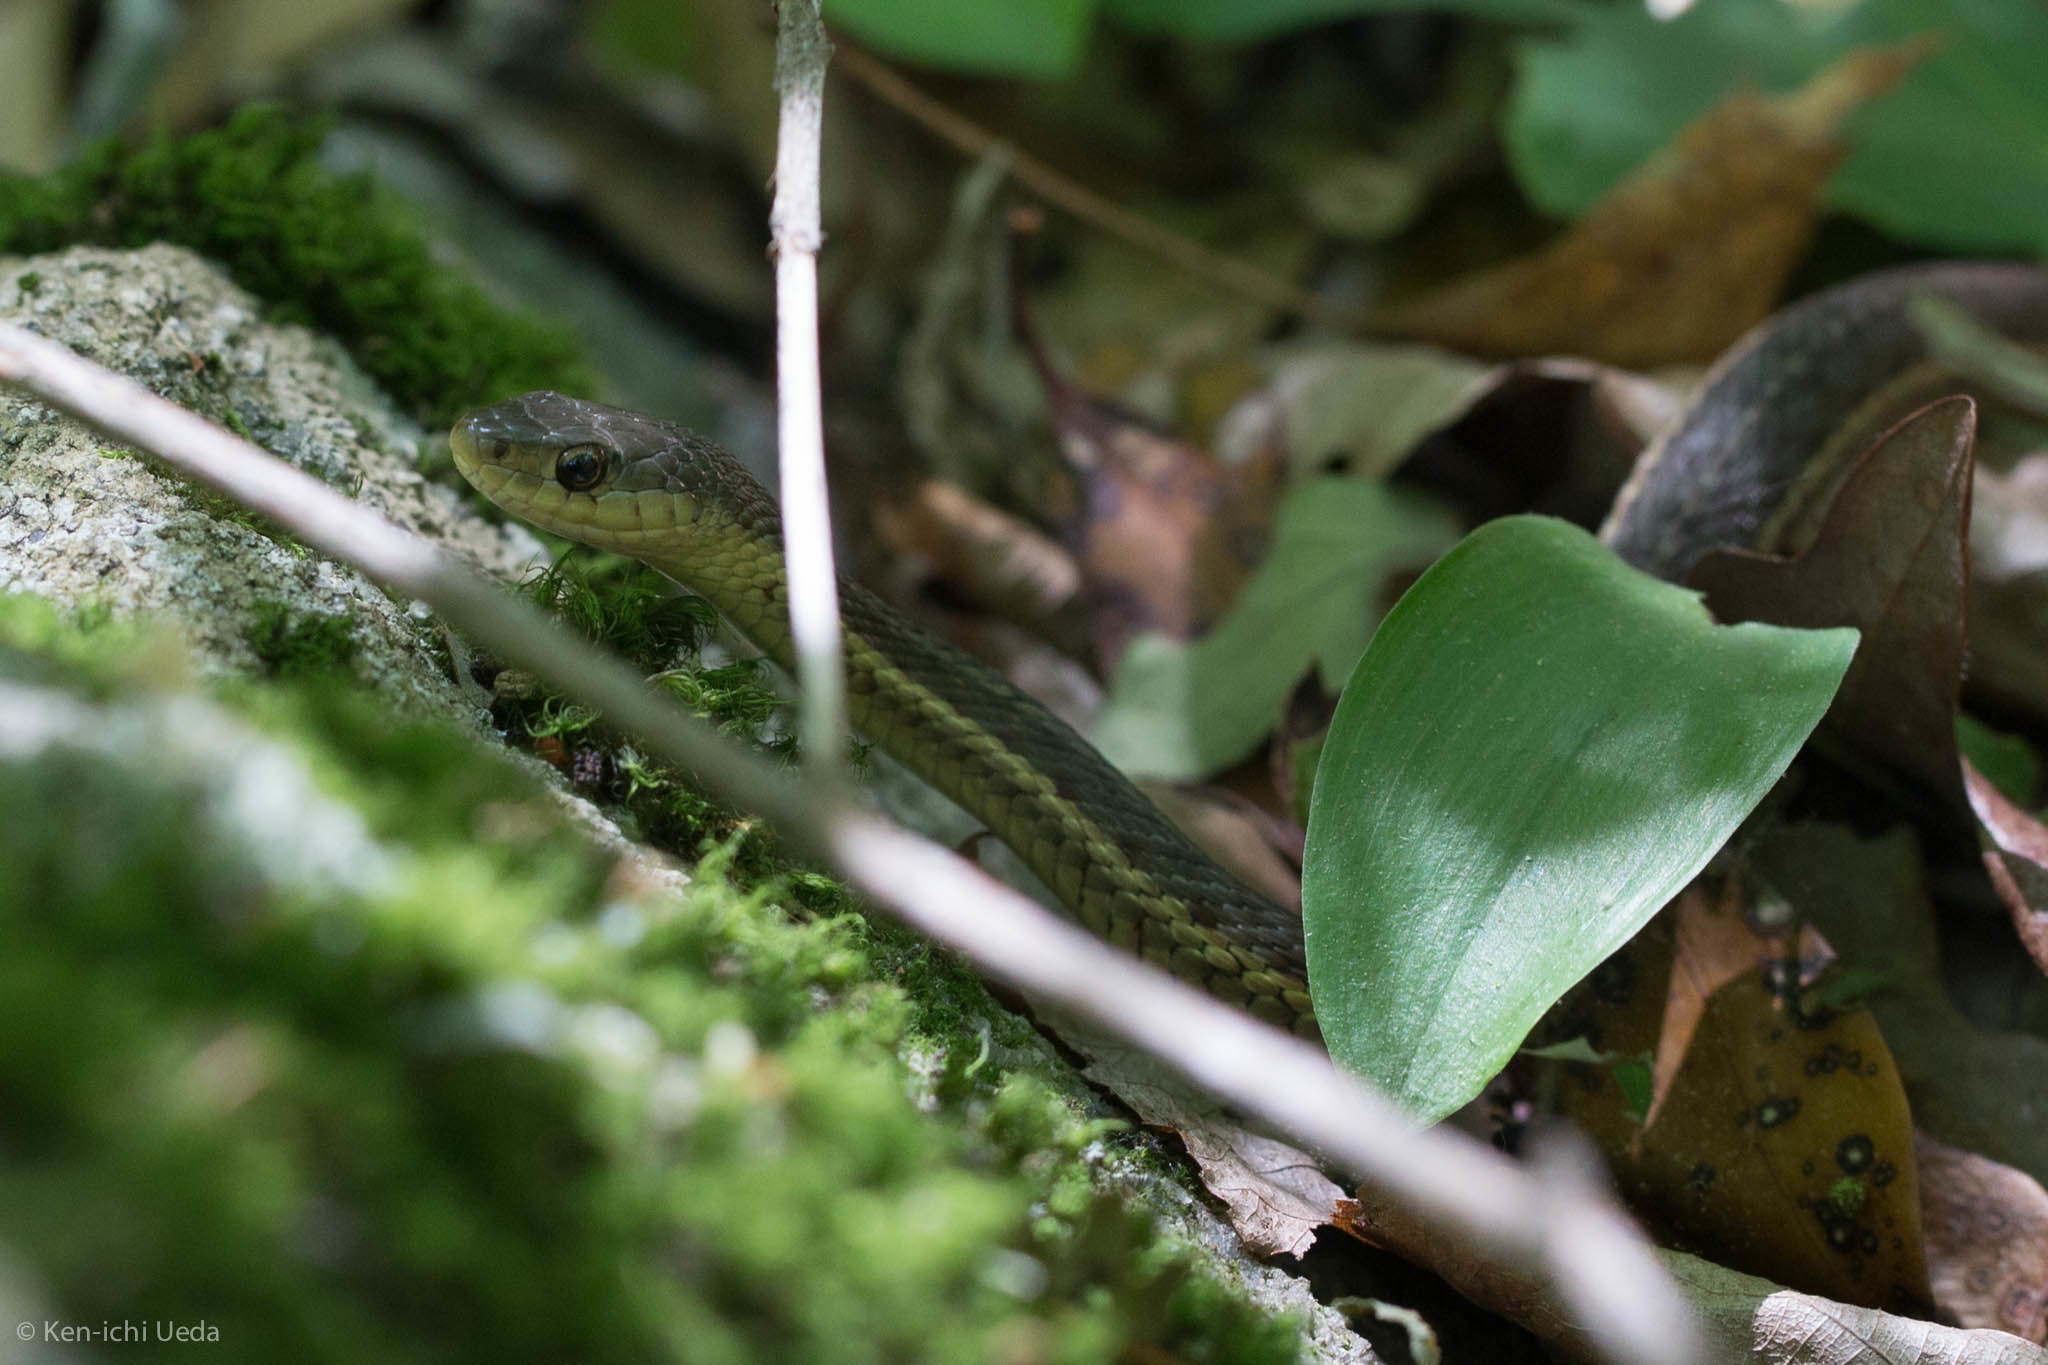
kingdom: Animalia
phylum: Chordata
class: Squamata
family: Colubridae
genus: Thamnophis
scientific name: Thamnophis sirtalis
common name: Common garter snake
